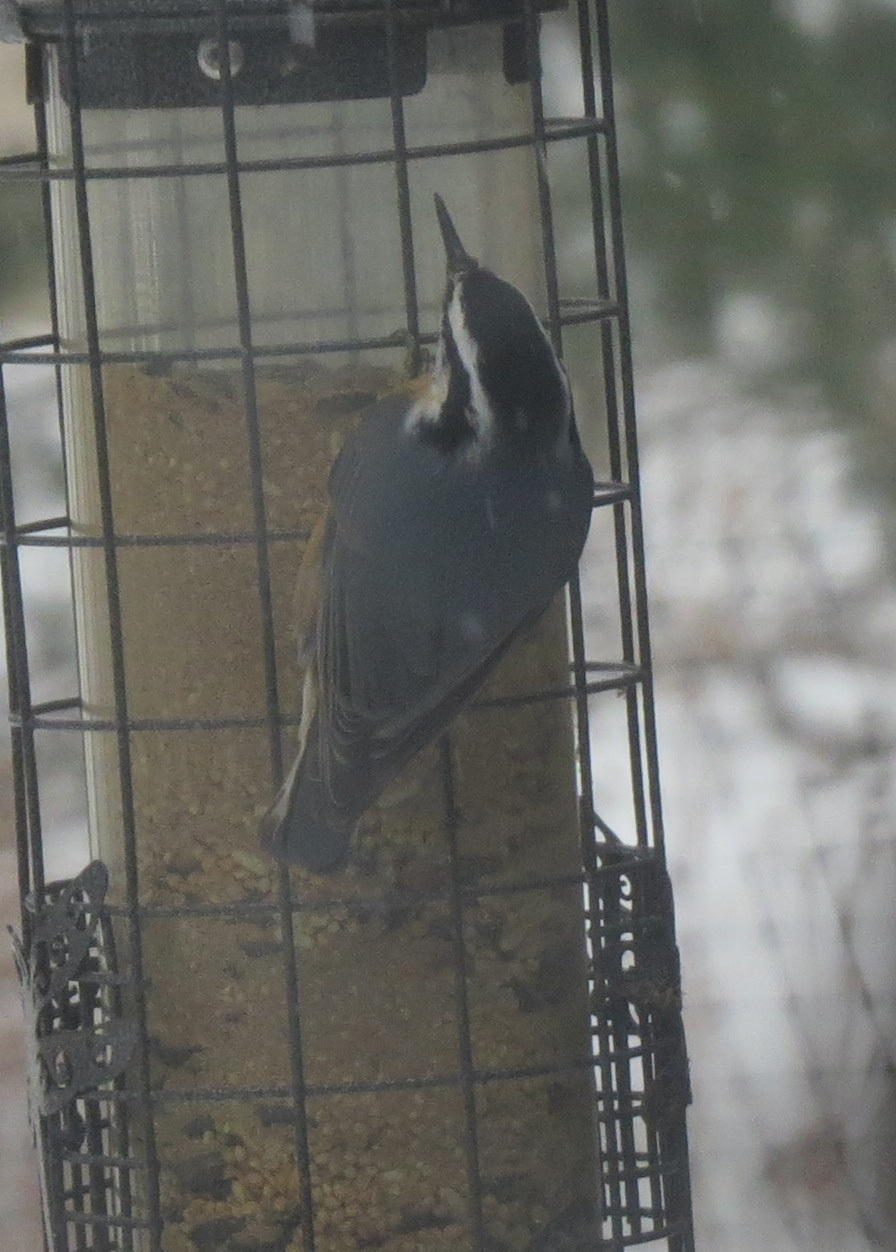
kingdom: Animalia
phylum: Chordata
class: Aves
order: Passeriformes
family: Sittidae
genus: Sitta
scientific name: Sitta canadensis
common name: Red-breasted nuthatch
